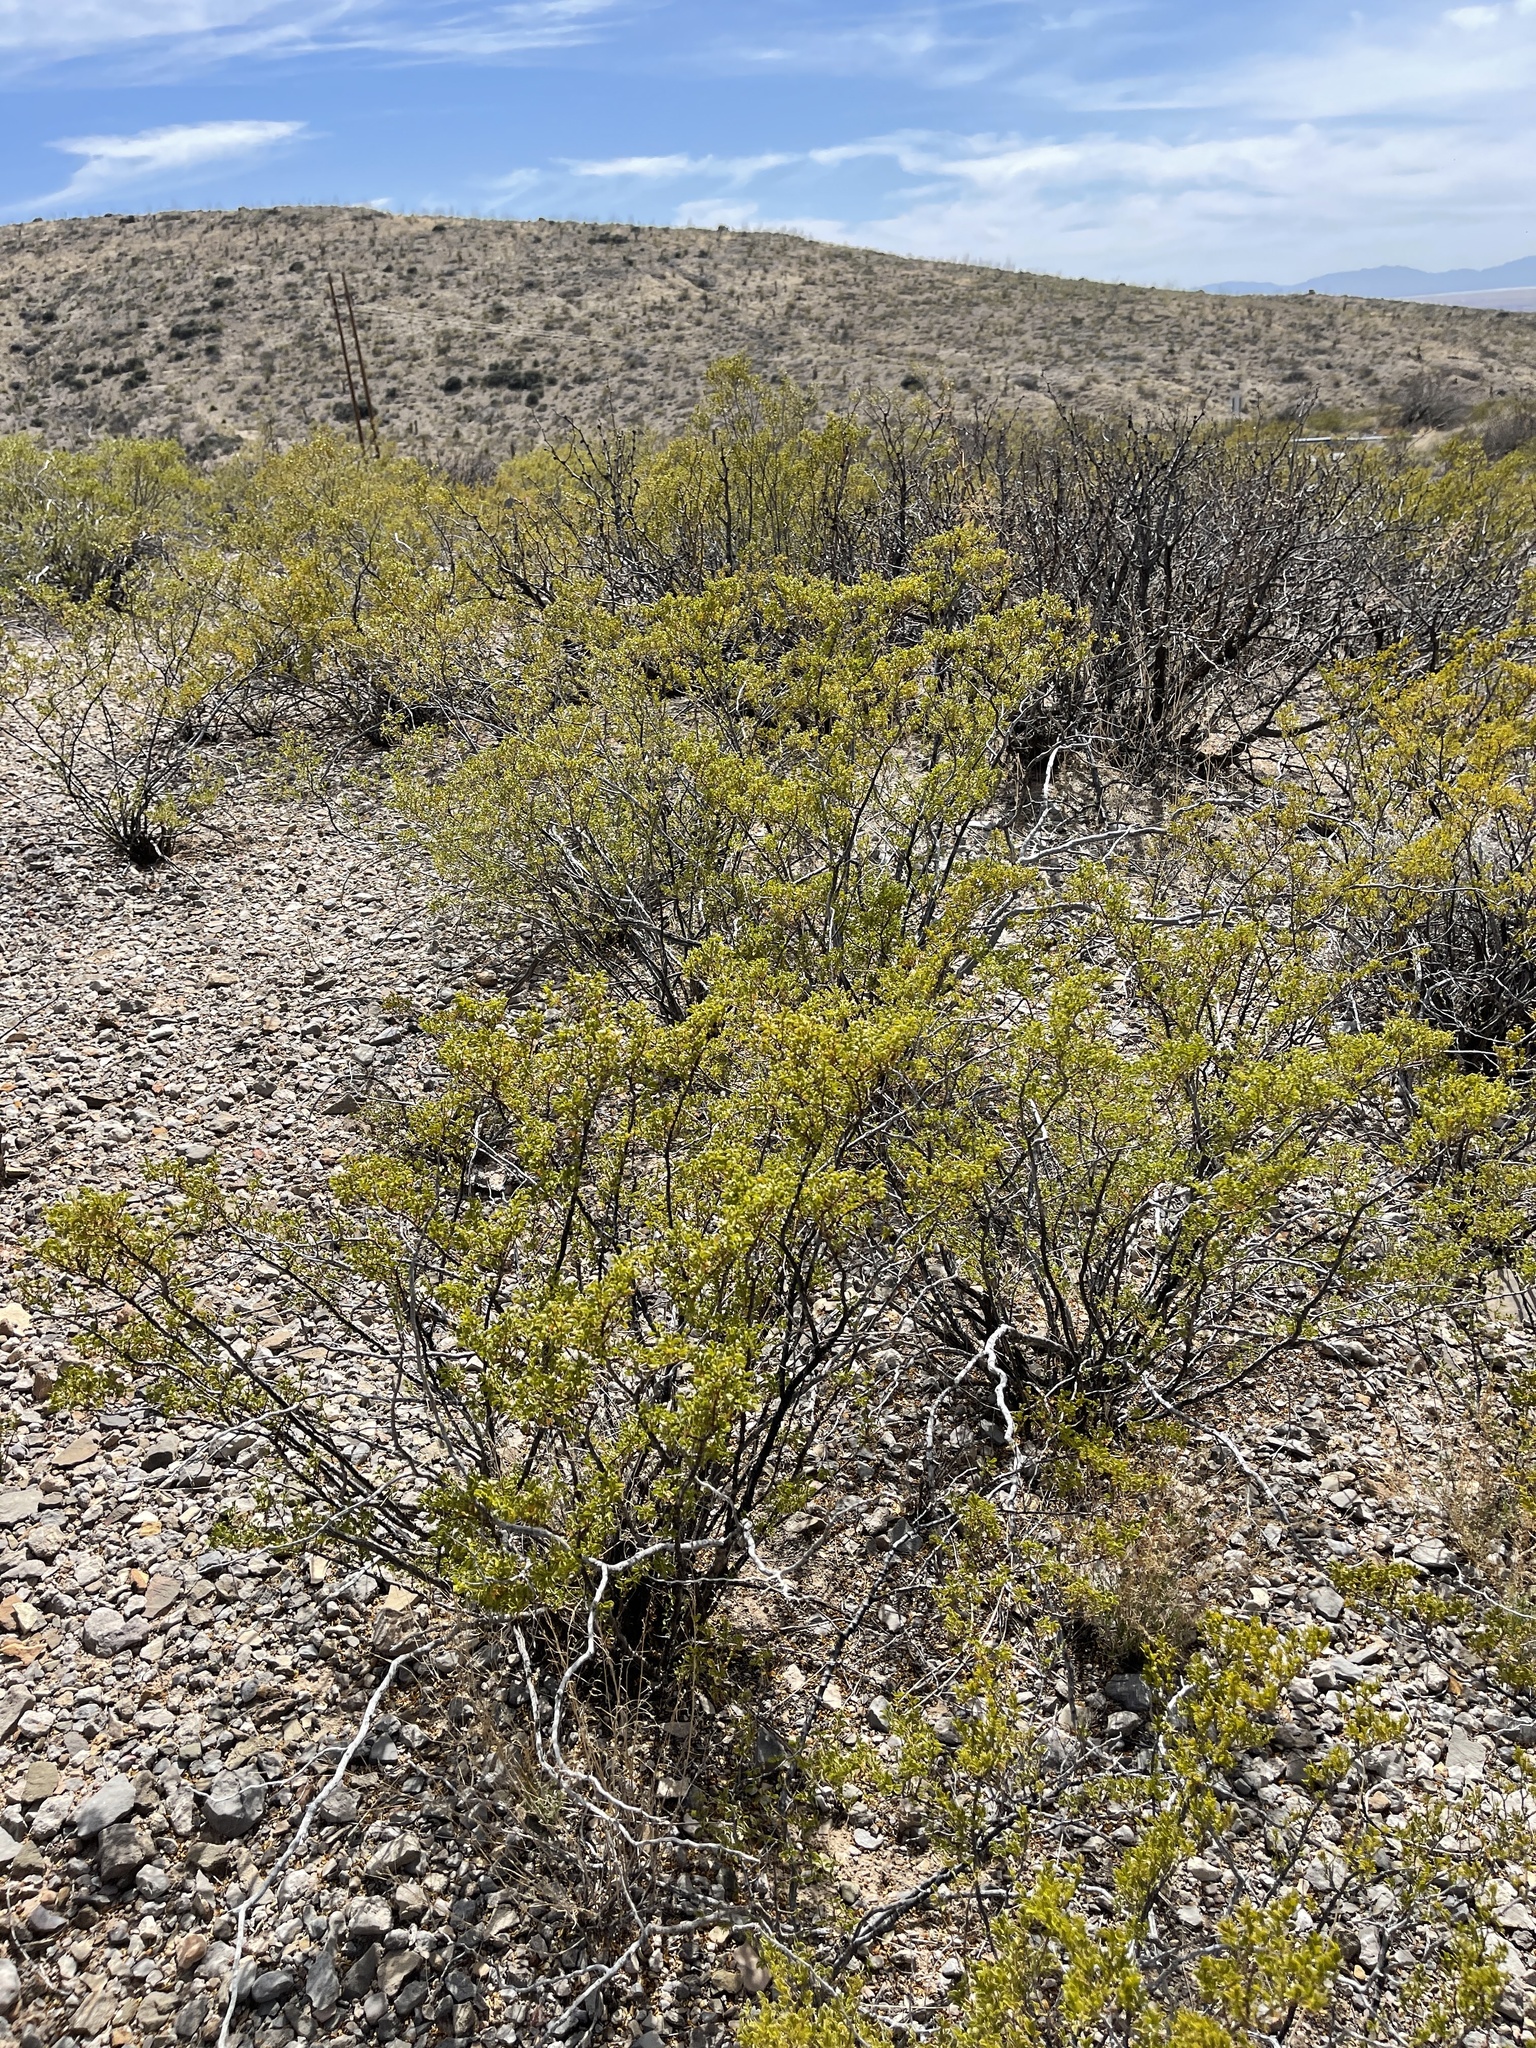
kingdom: Plantae
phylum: Tracheophyta
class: Magnoliopsida
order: Zygophyllales
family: Zygophyllaceae
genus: Larrea
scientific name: Larrea tridentata
